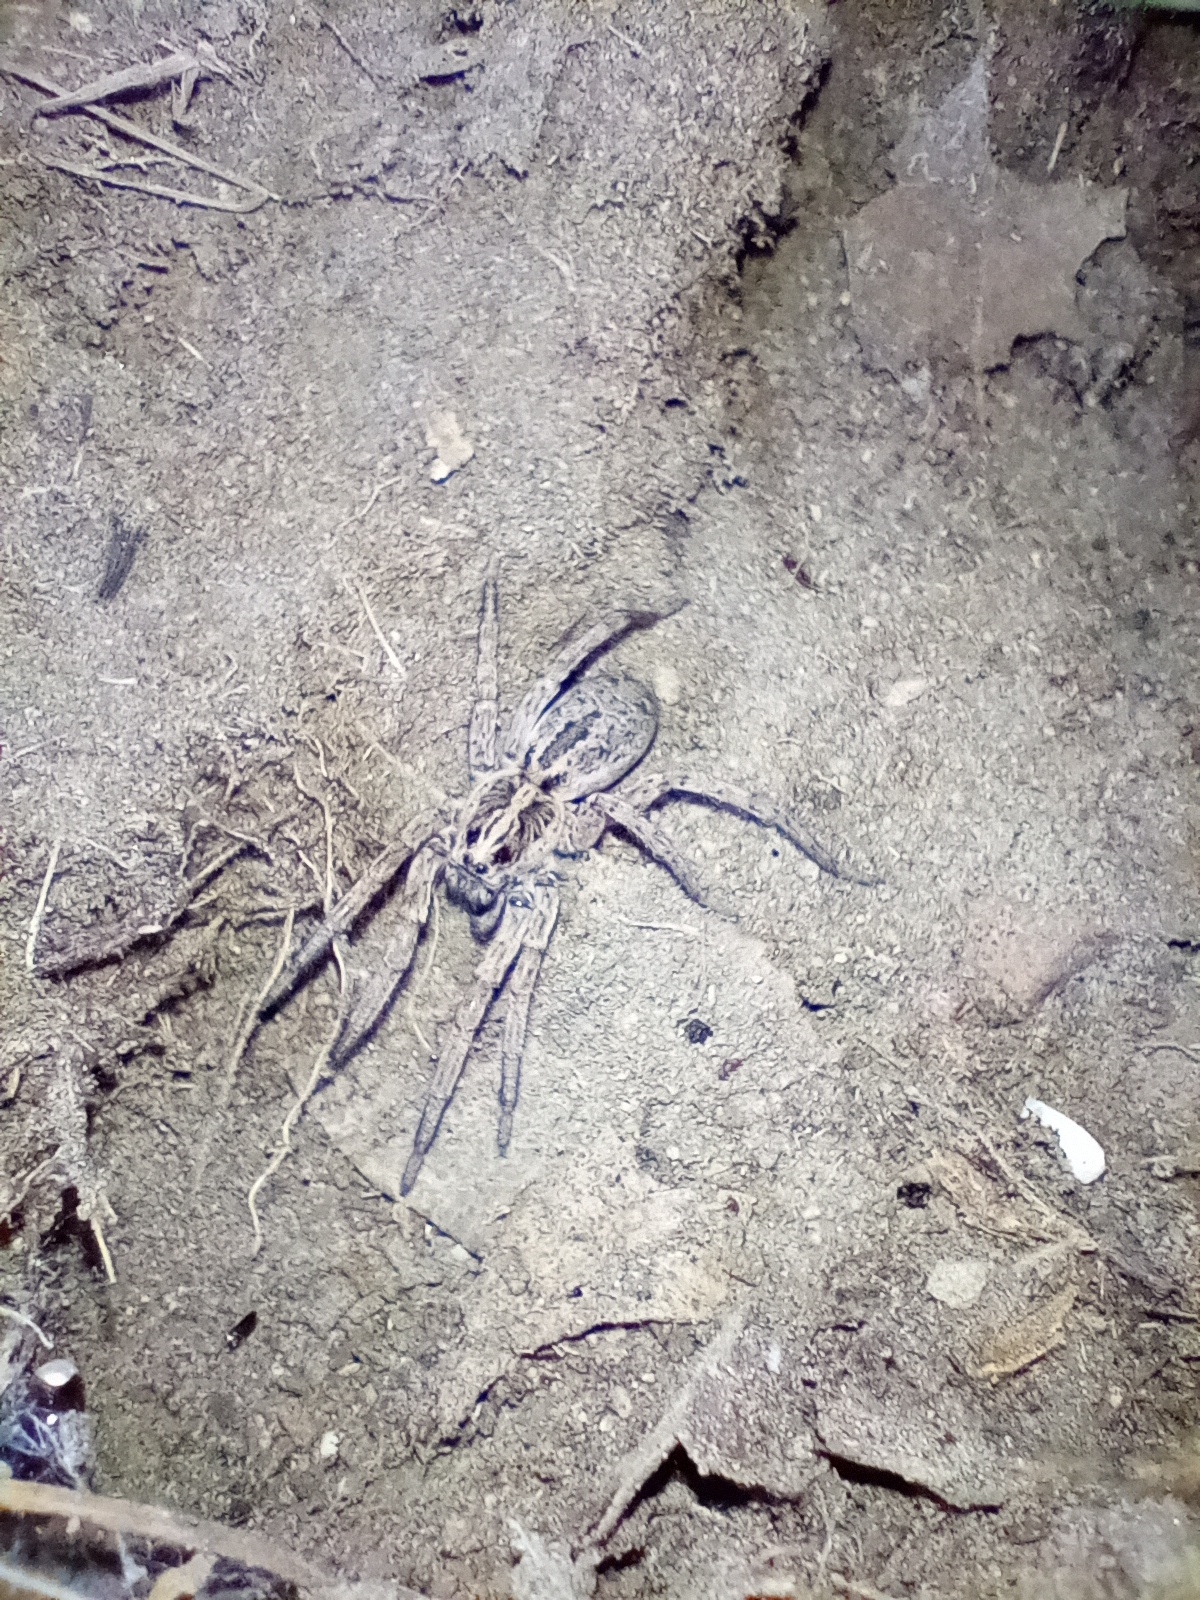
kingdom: Animalia
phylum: Arthropoda
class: Arachnida
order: Araneae
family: Lycosidae
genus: Hogna
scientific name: Hogna
